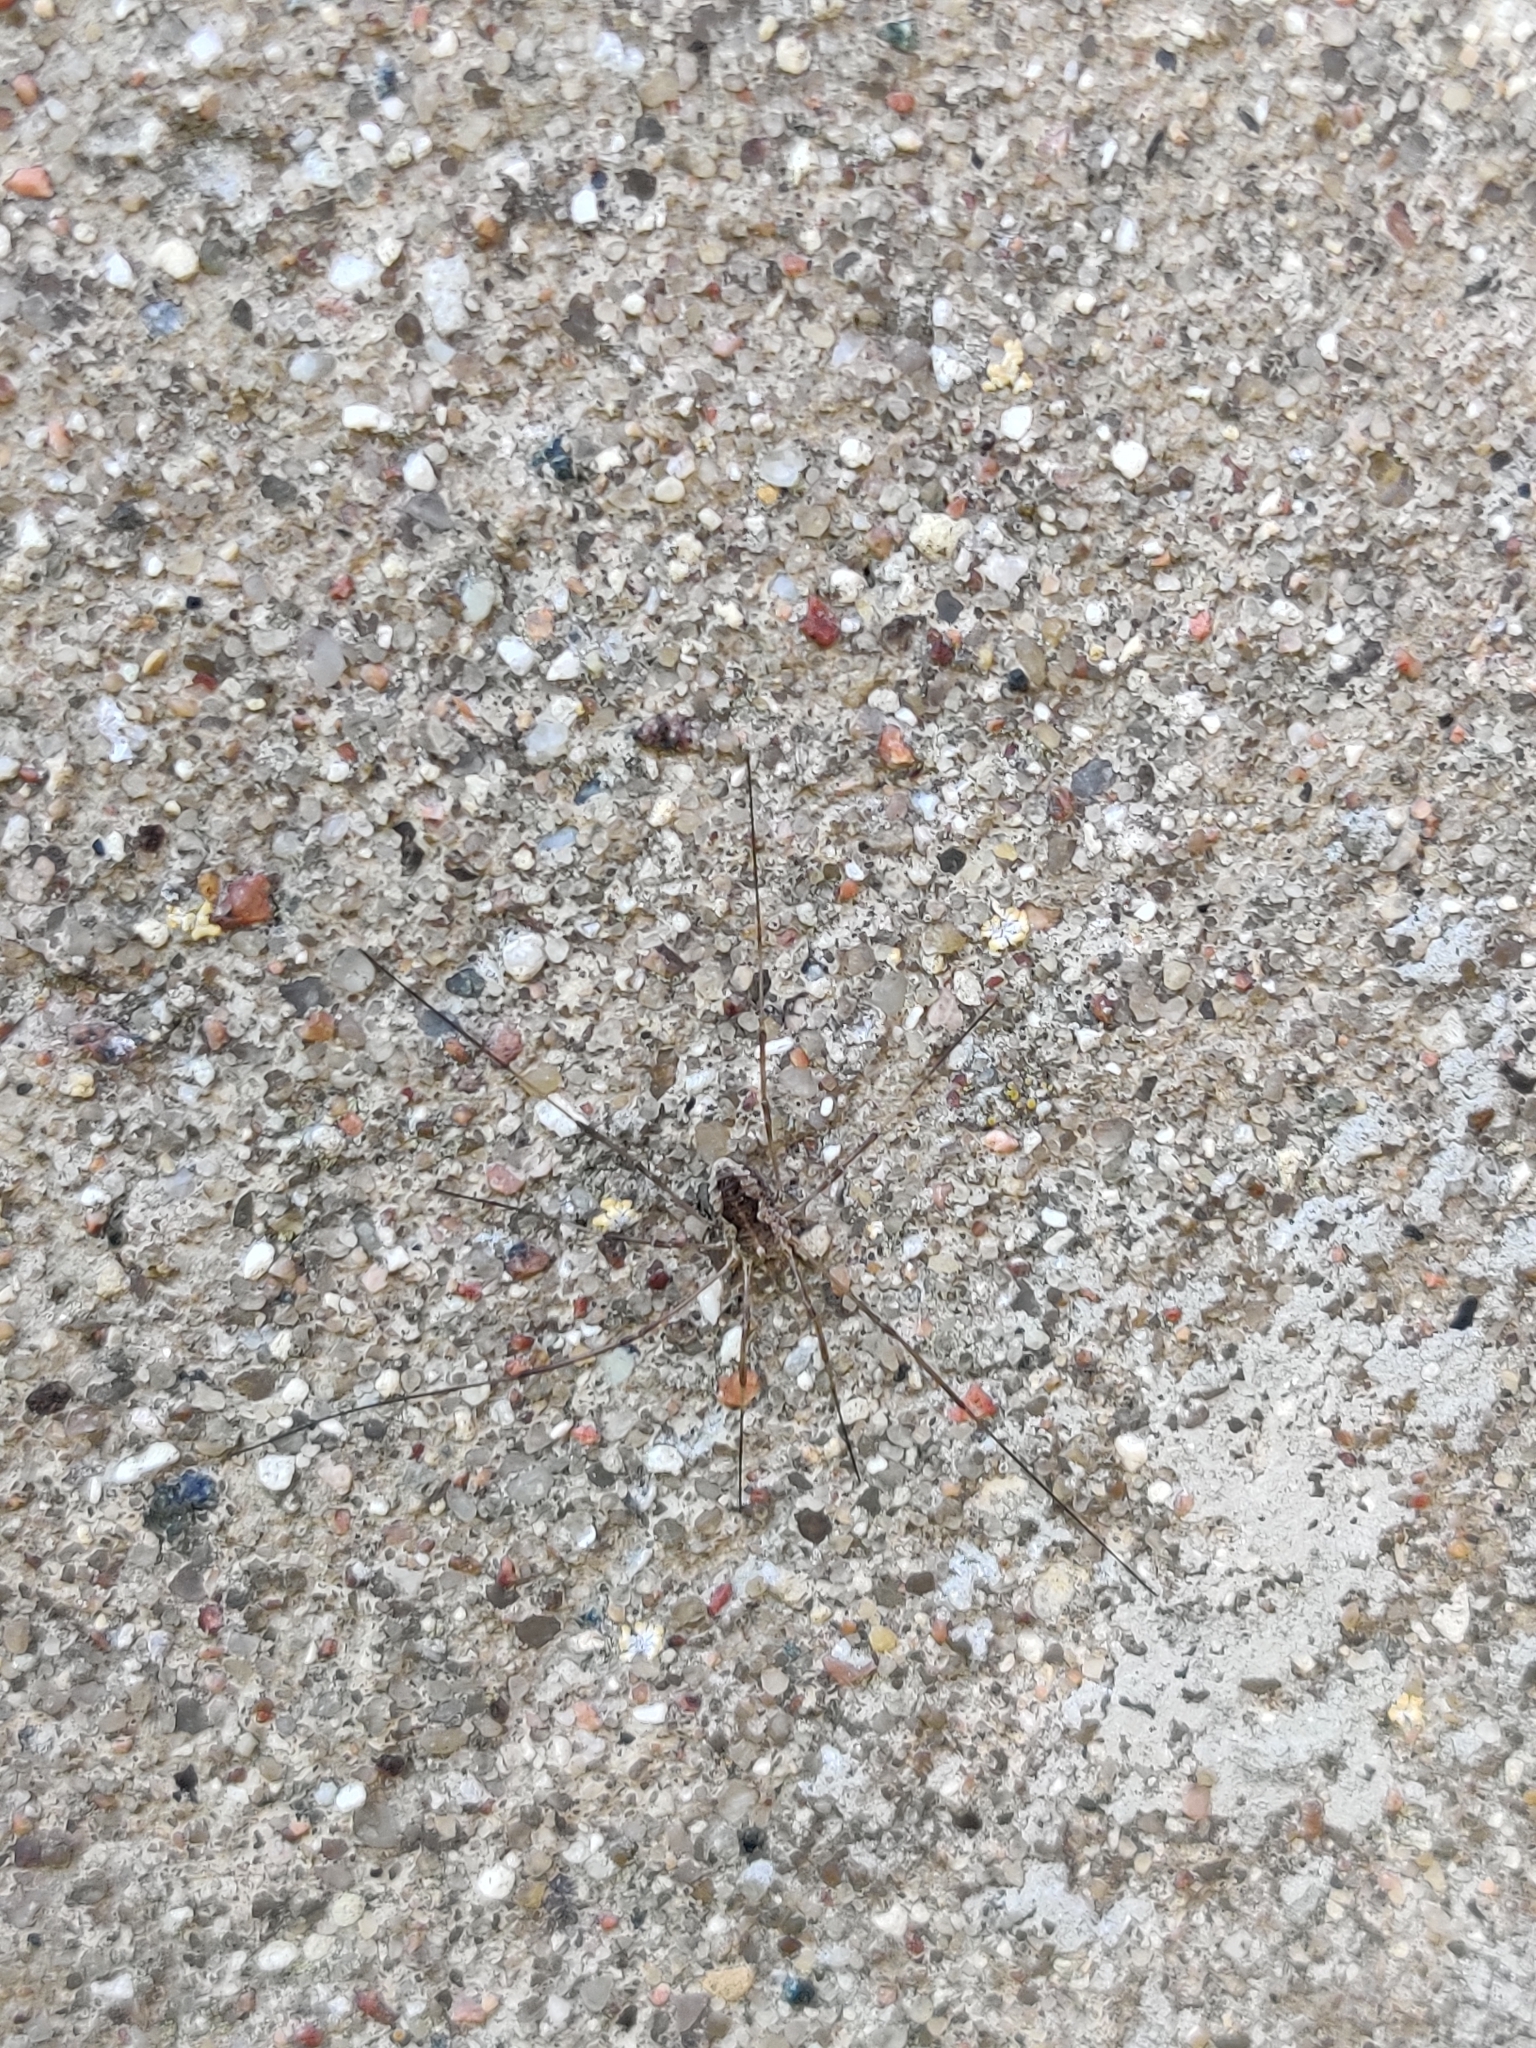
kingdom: Animalia
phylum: Arthropoda
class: Arachnida
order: Opiliones
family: Phalangiidae
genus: Phalangium
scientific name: Phalangium opilio
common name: Daddy longleg
